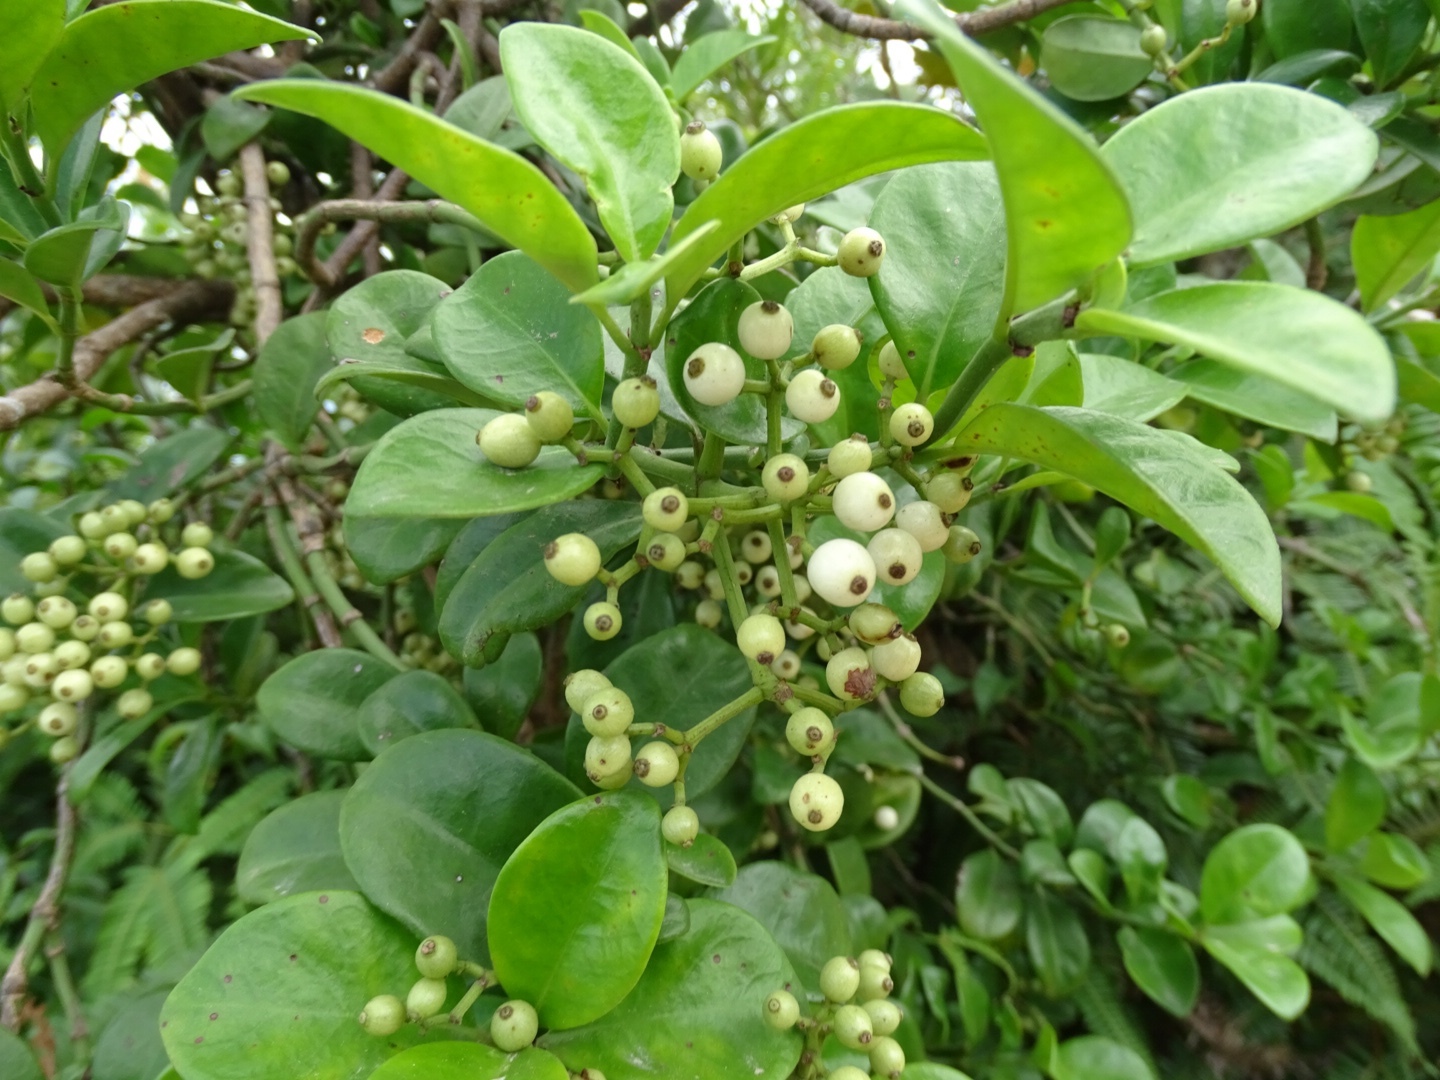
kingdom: Plantae
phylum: Tracheophyta
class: Magnoliopsida
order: Gentianales
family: Rubiaceae
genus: Psychotria
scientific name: Psychotria serpens
